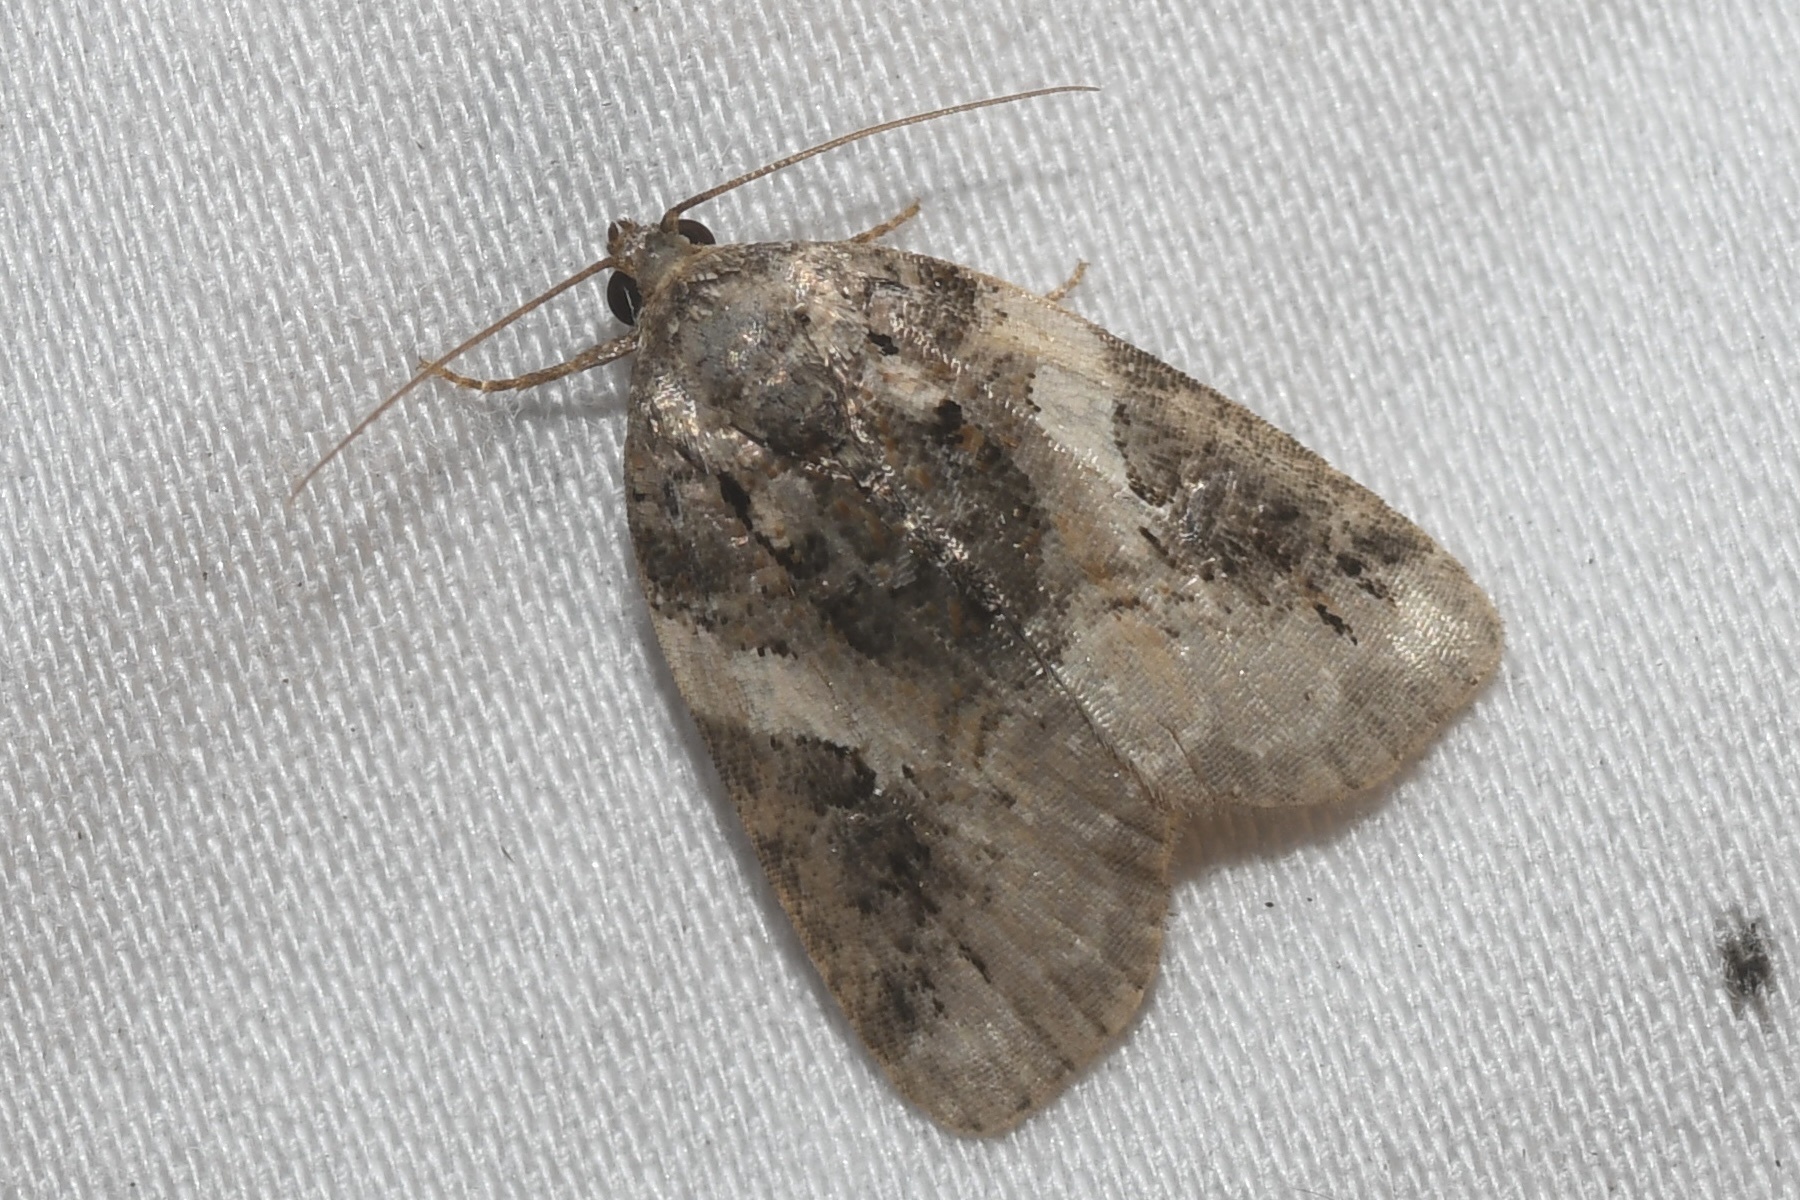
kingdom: Animalia
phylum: Arthropoda
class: Insecta
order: Lepidoptera
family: Noctuidae
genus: Pseudeustrotia
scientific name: Pseudeustrotia carneola
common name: Pink-barred lithacodia moth
